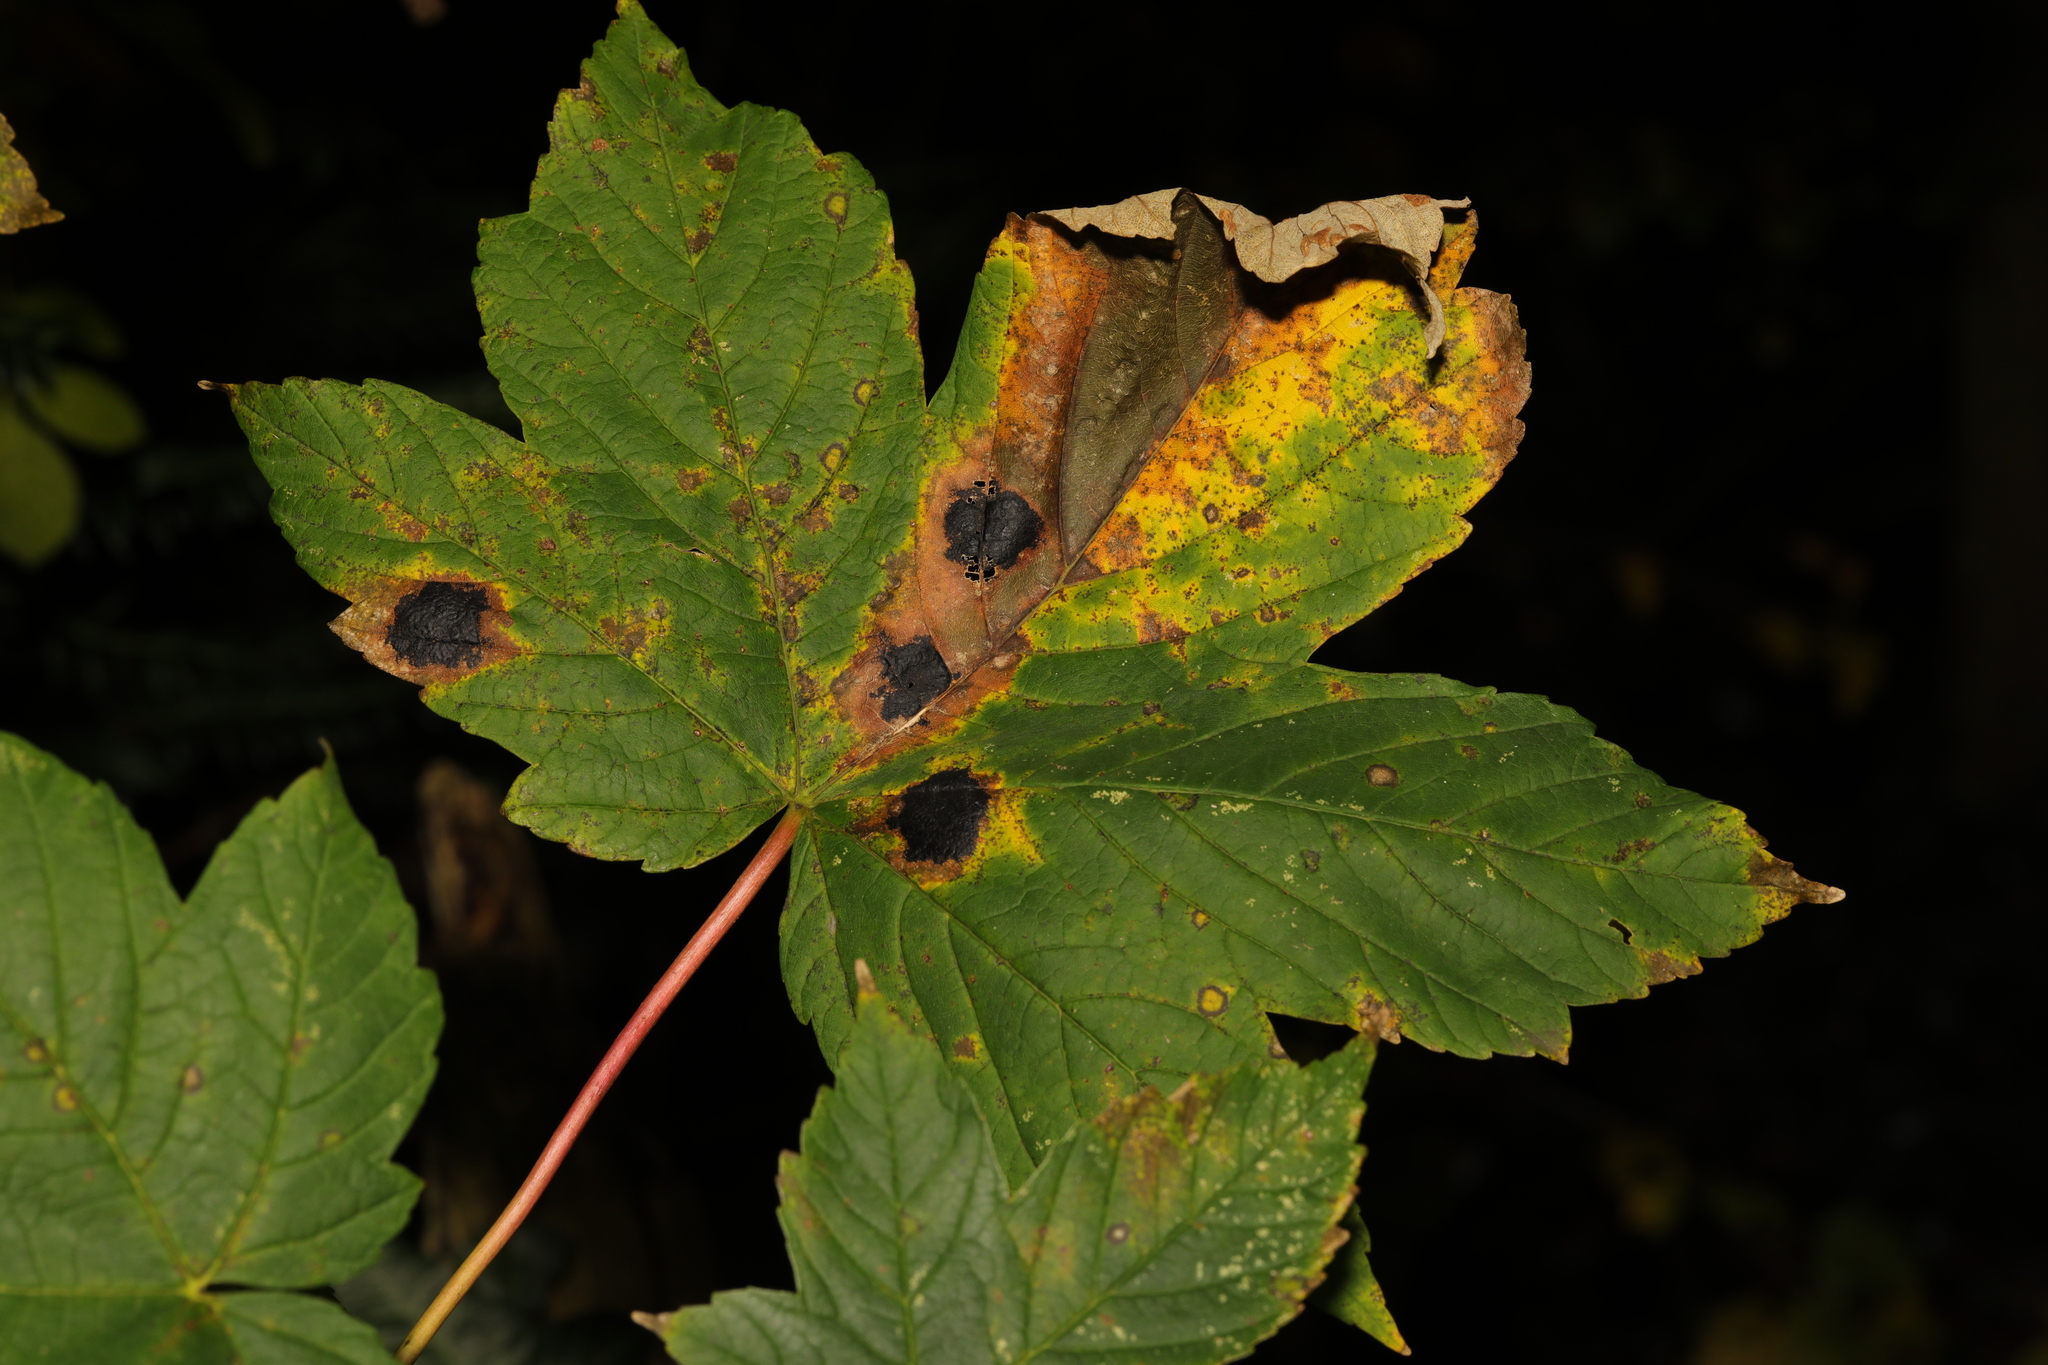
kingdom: Fungi
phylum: Ascomycota
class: Leotiomycetes
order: Rhytismatales
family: Rhytismataceae
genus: Rhytisma
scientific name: Rhytisma acerinum
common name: European tar spot
